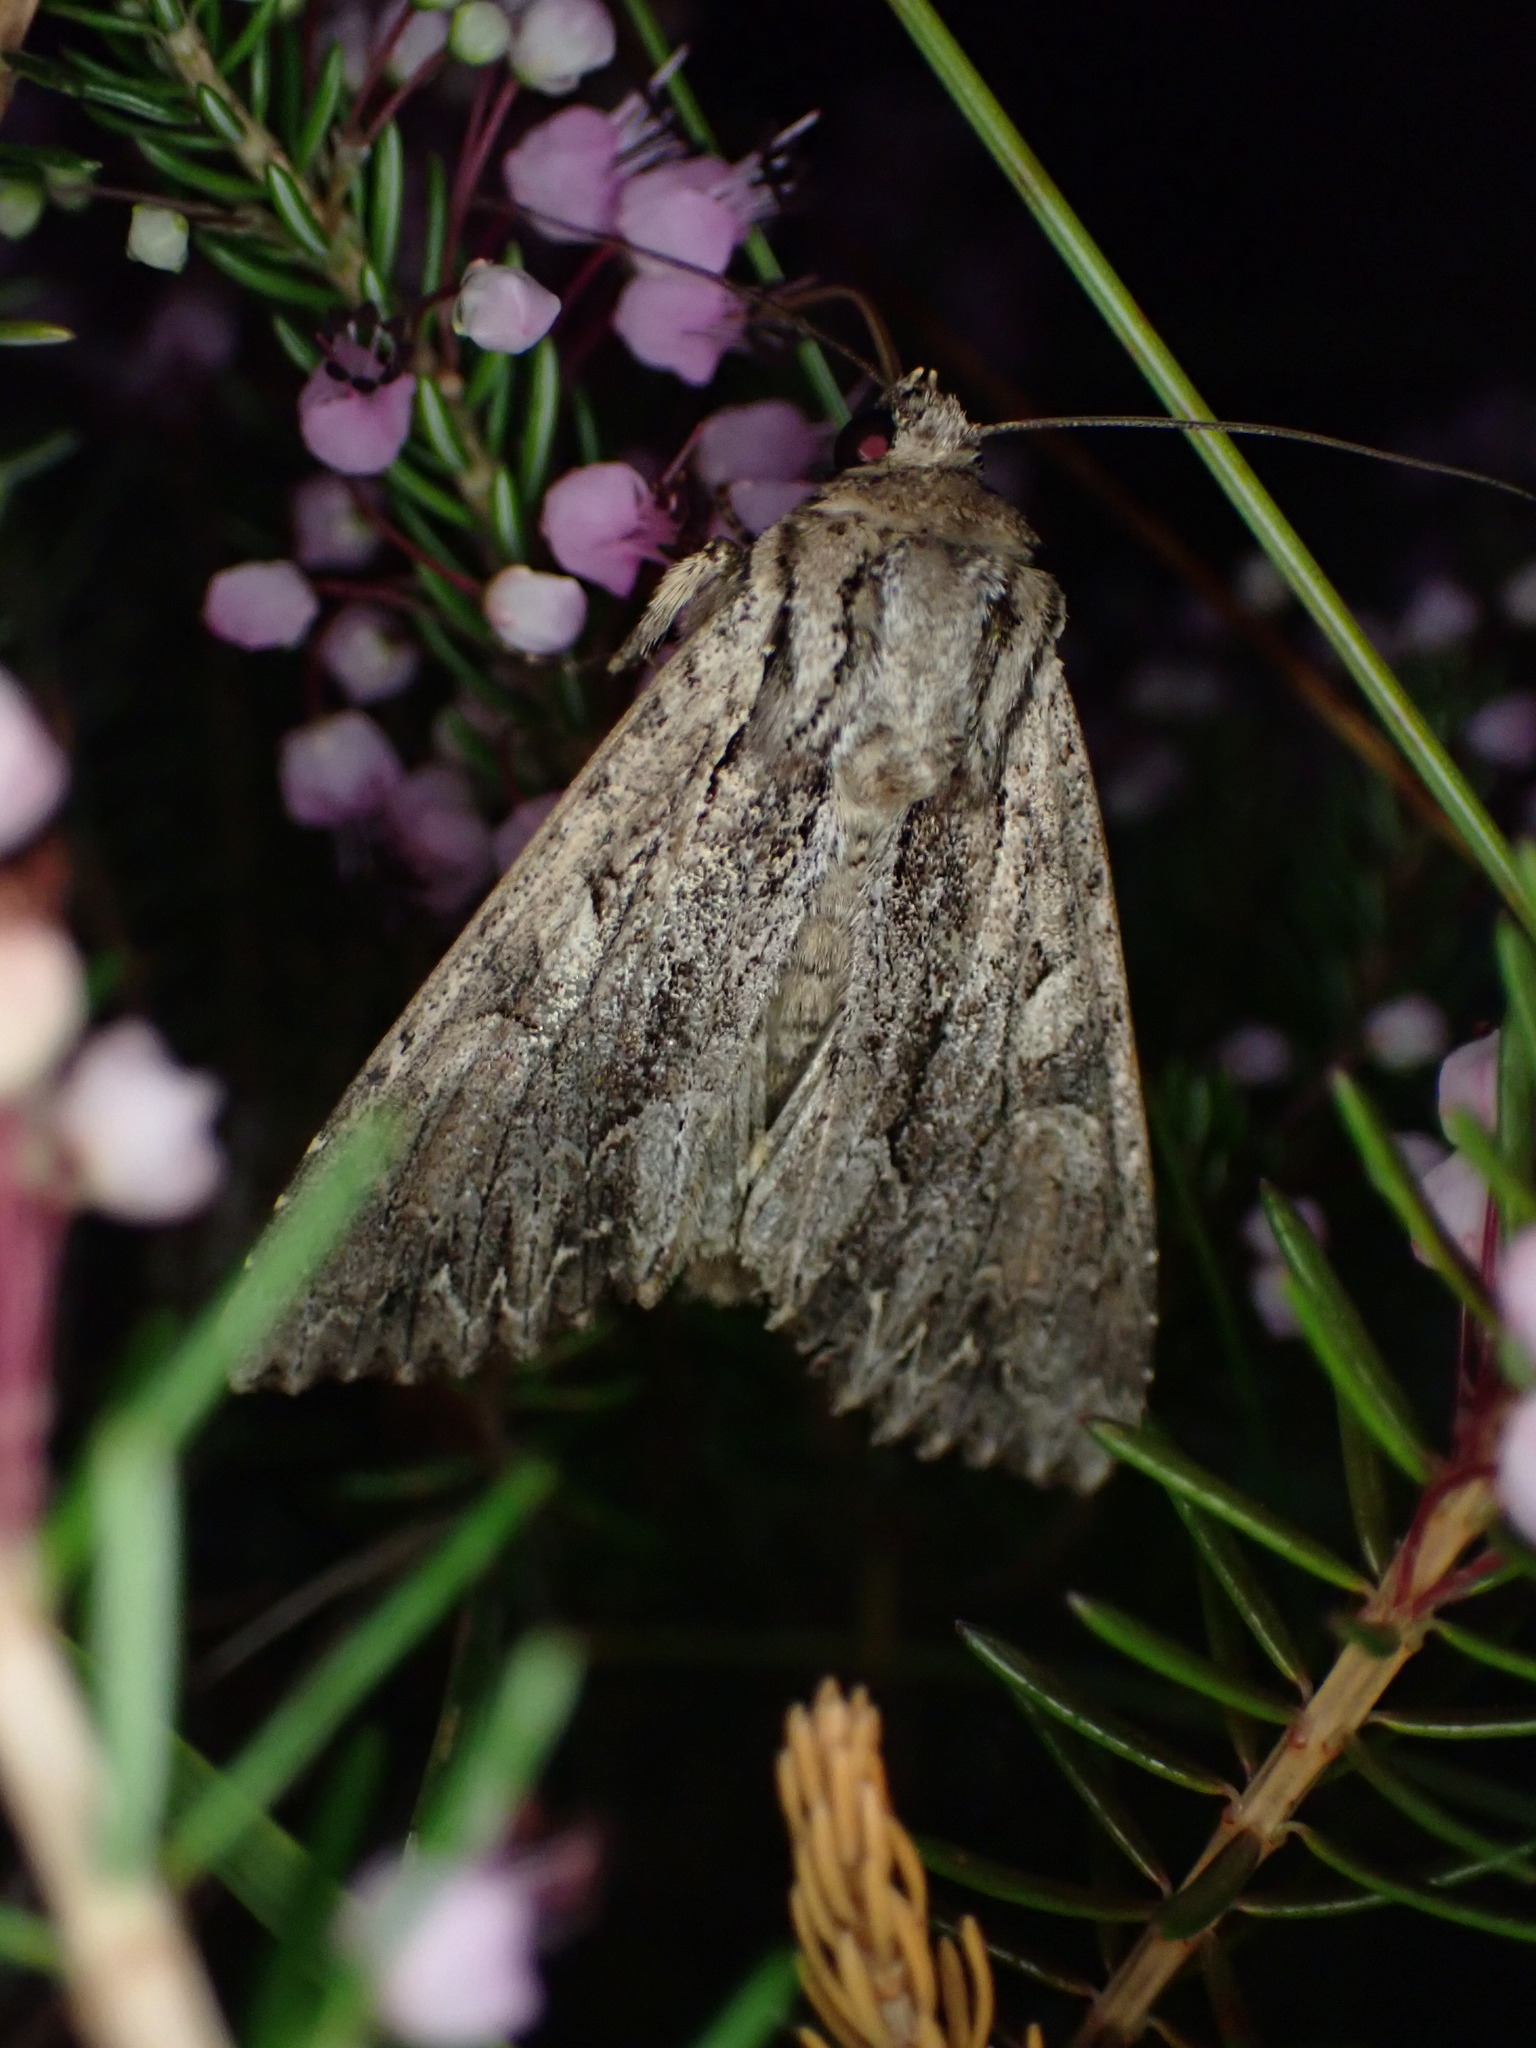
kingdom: Animalia
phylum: Arthropoda
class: Insecta
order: Lepidoptera
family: Noctuidae
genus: Apamea
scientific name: Apamea monoglypha
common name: Dark arches
